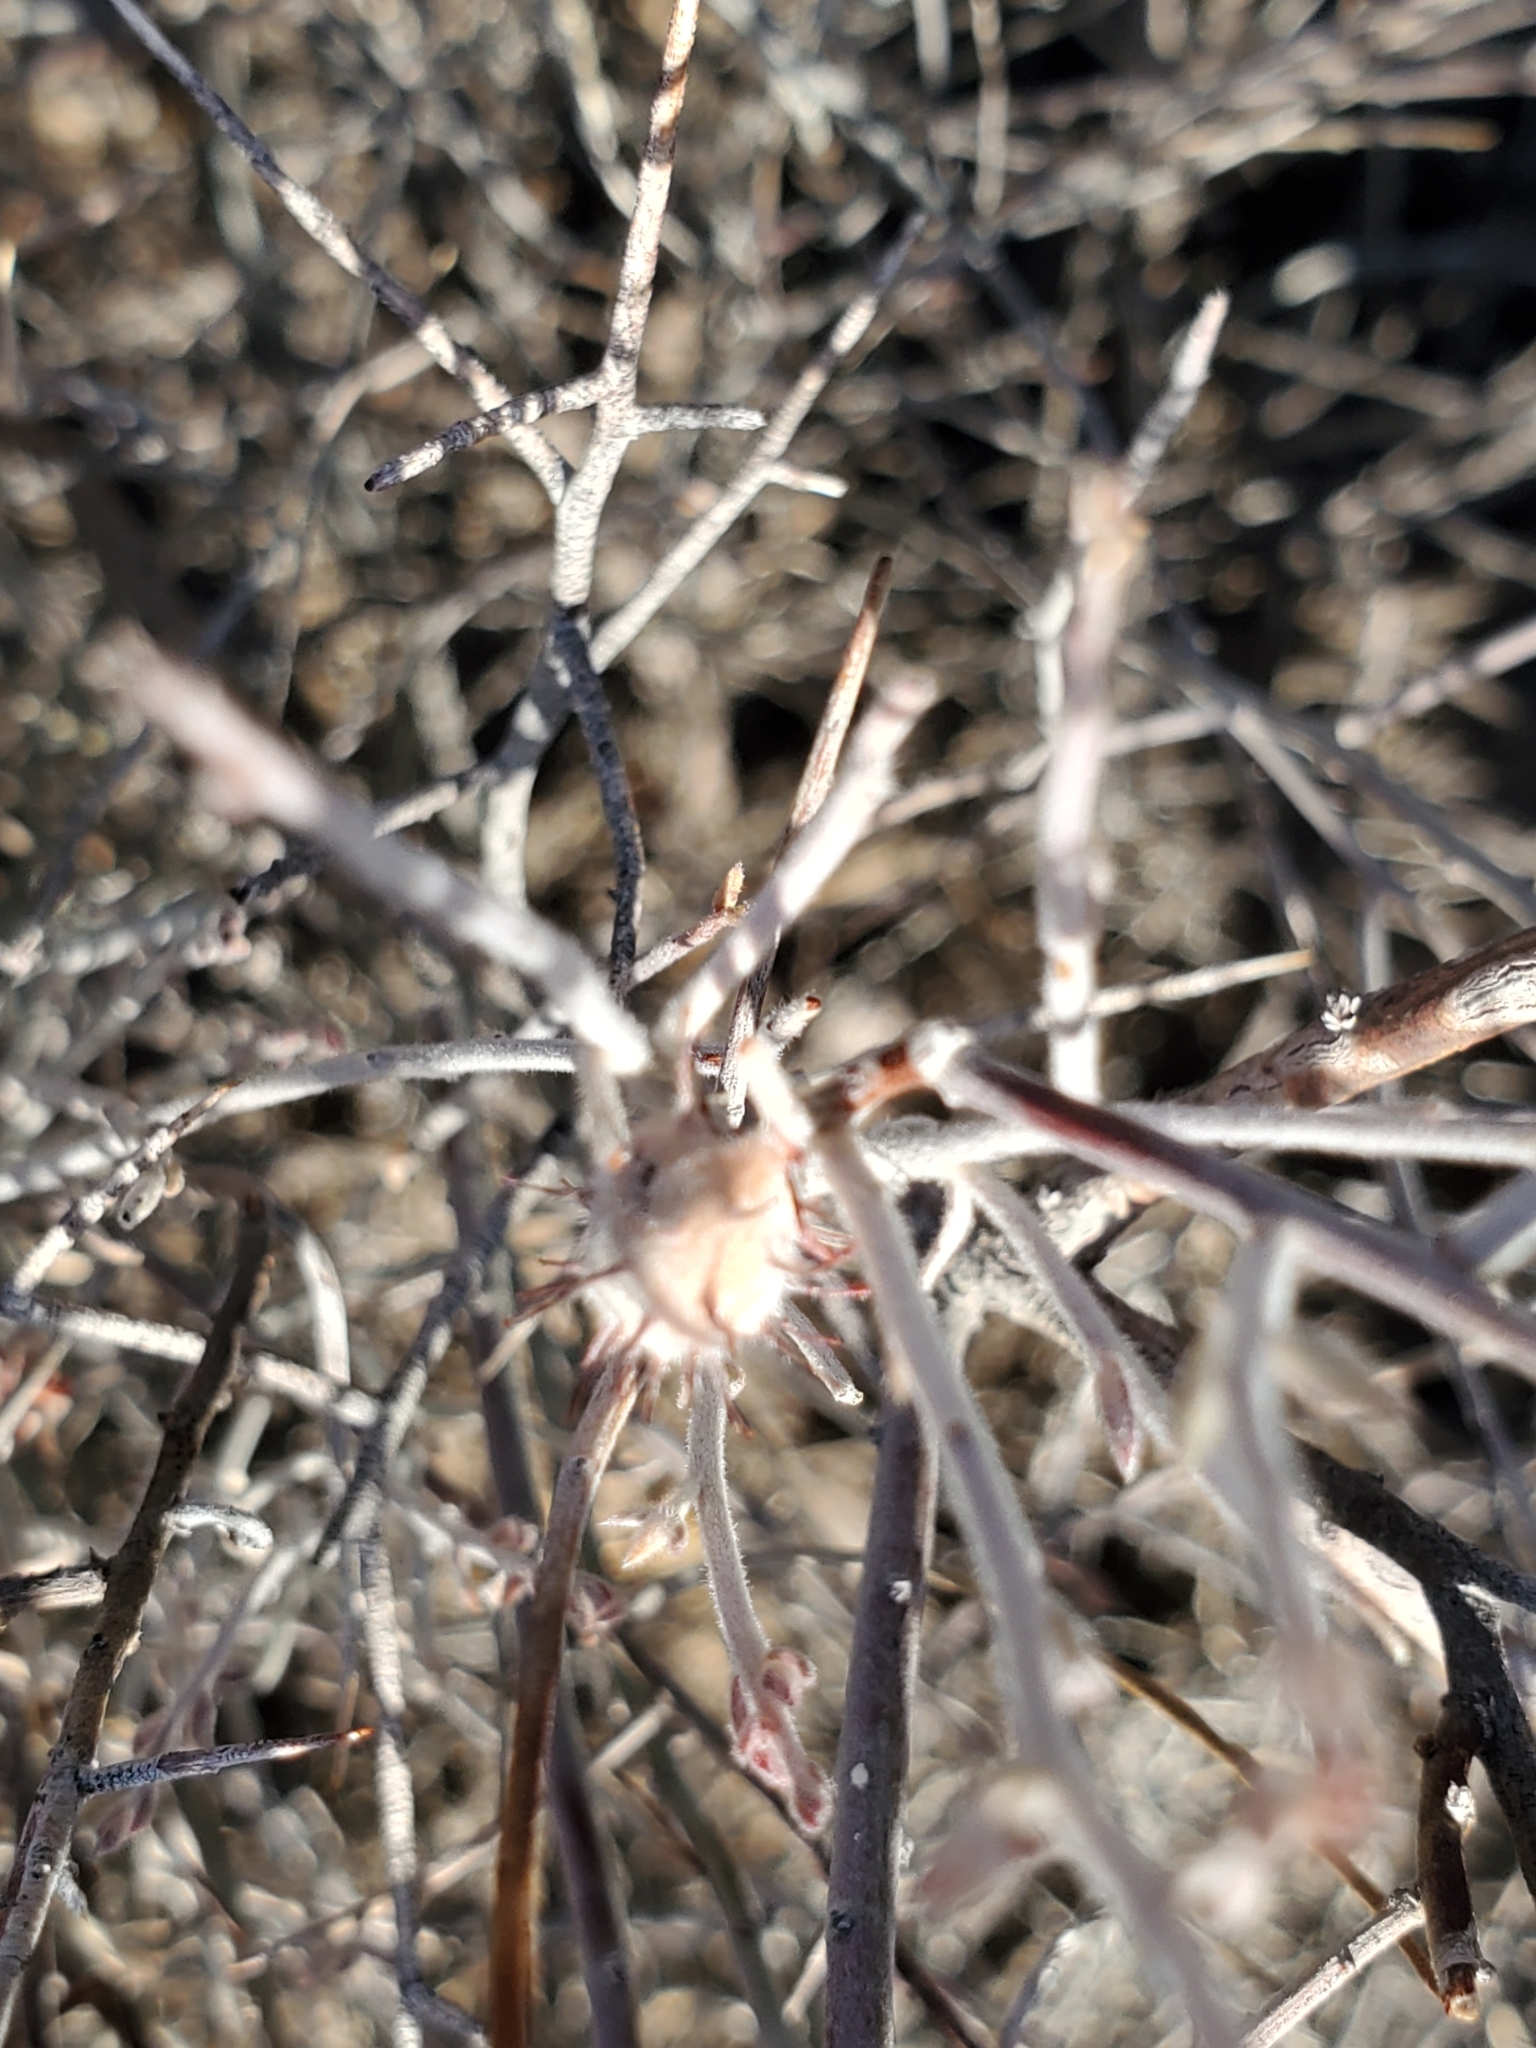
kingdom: Plantae
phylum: Tracheophyta
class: Magnoliopsida
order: Zygophyllales
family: Krameriaceae
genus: Krameria
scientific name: Krameria bicolor
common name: White ratany
